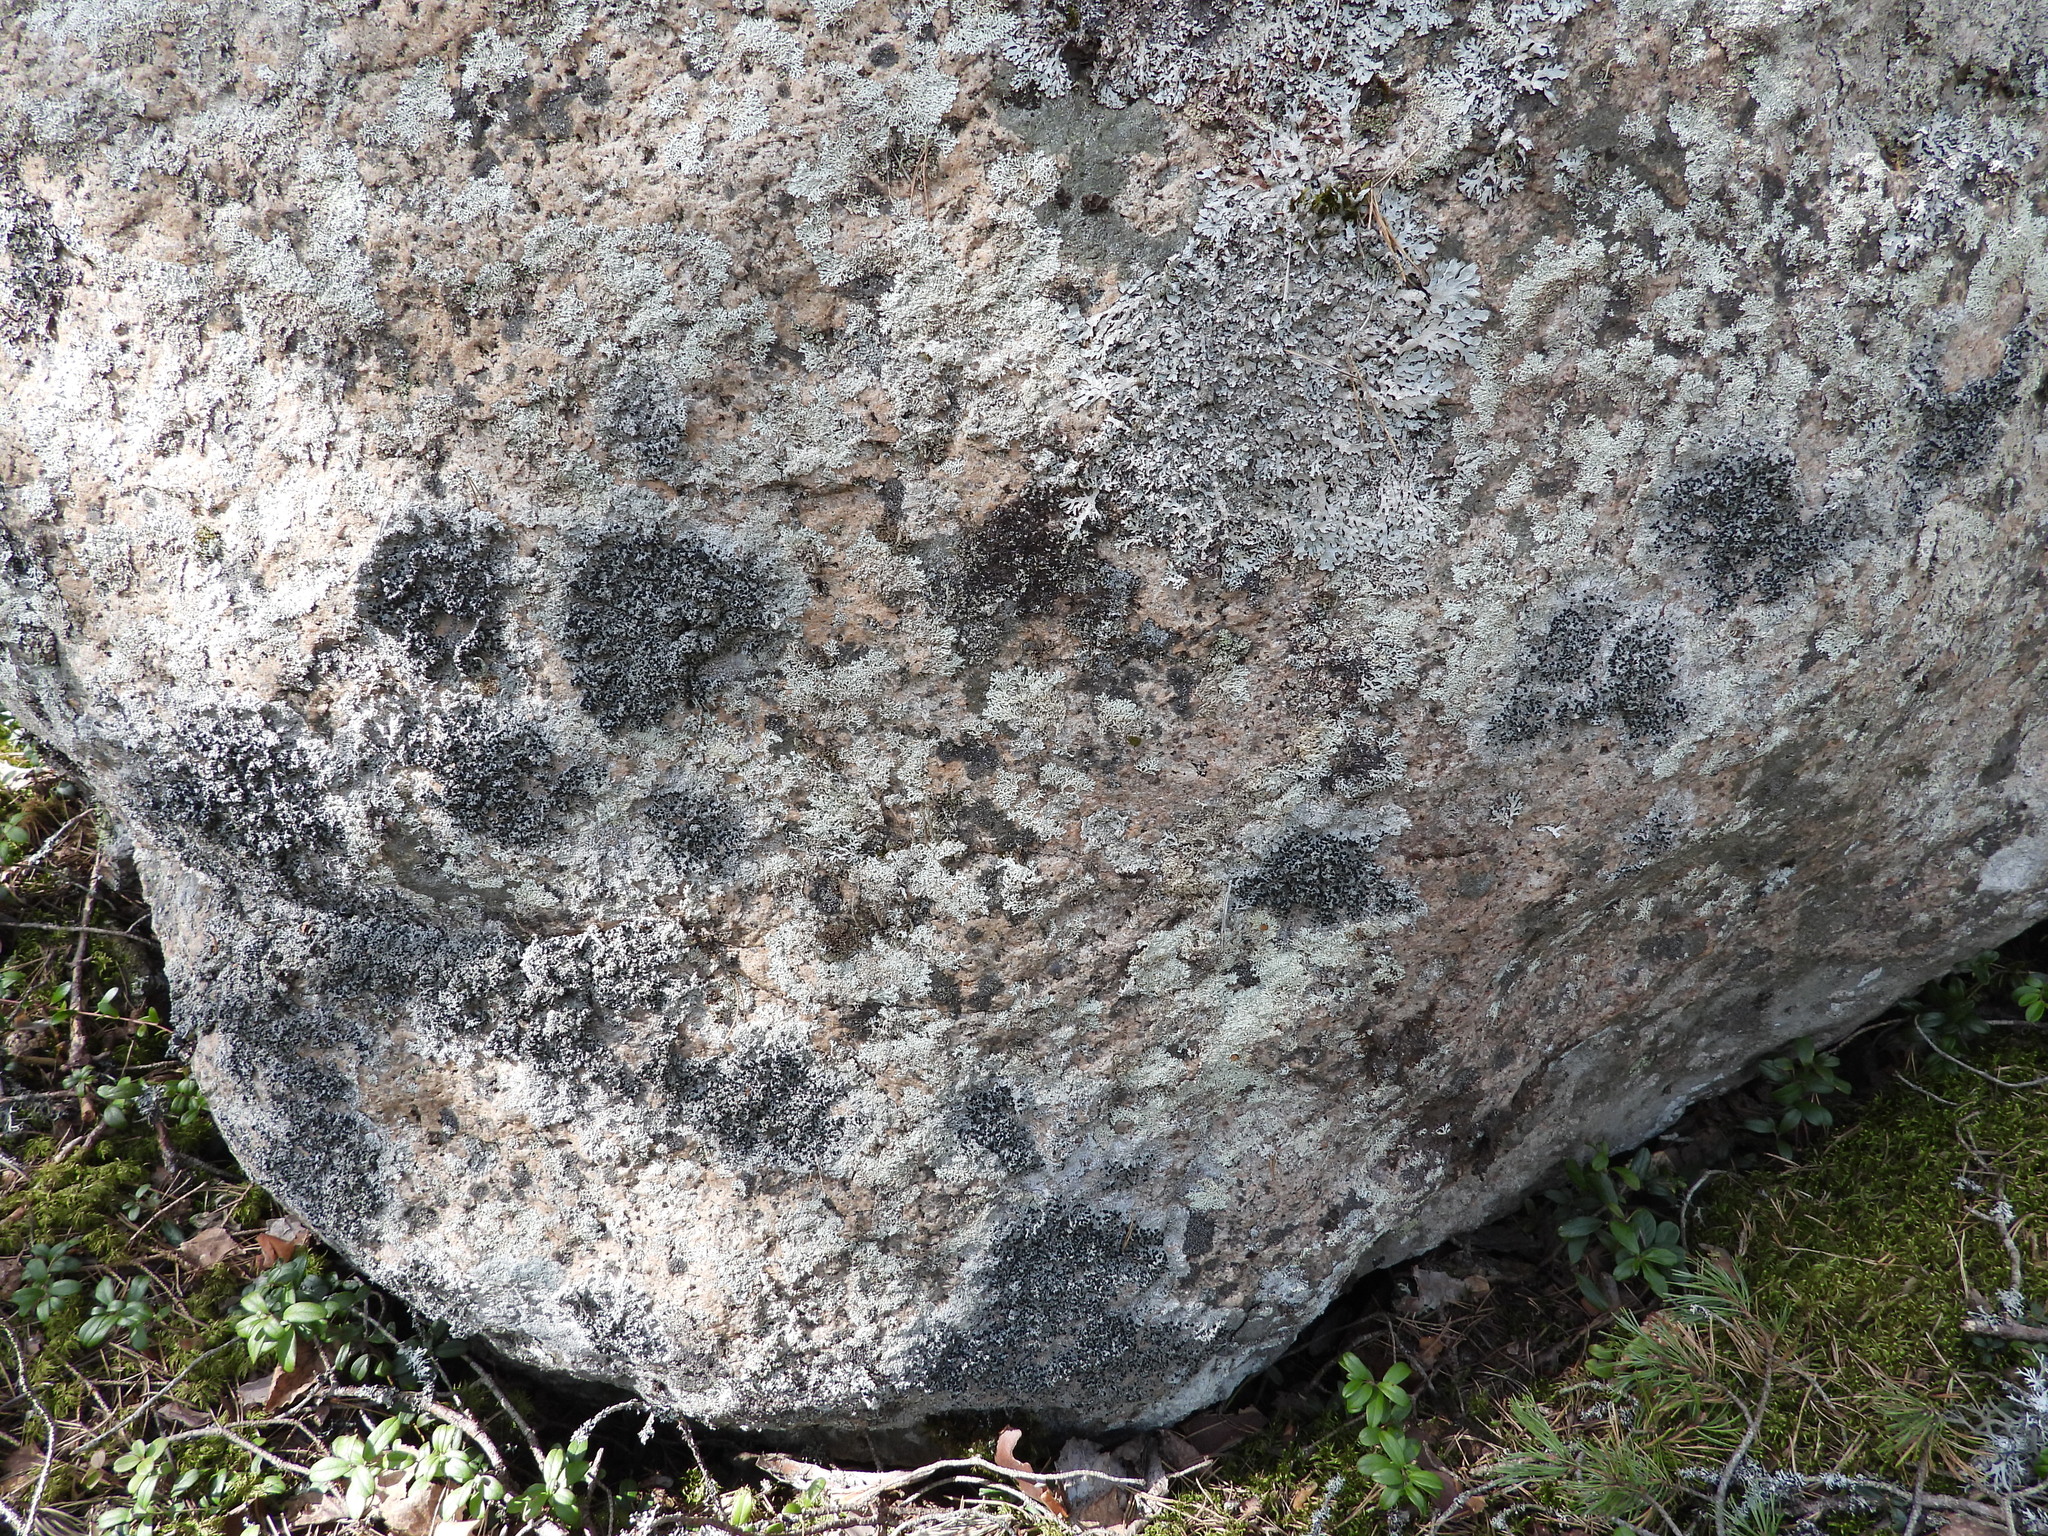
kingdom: Fungi
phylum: Ascomycota
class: Lecanoromycetes
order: Lecanorales
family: Tephromelataceae
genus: Mycoblastus
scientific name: Mycoblastus sanguinarius
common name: Bloody-heart lichen
